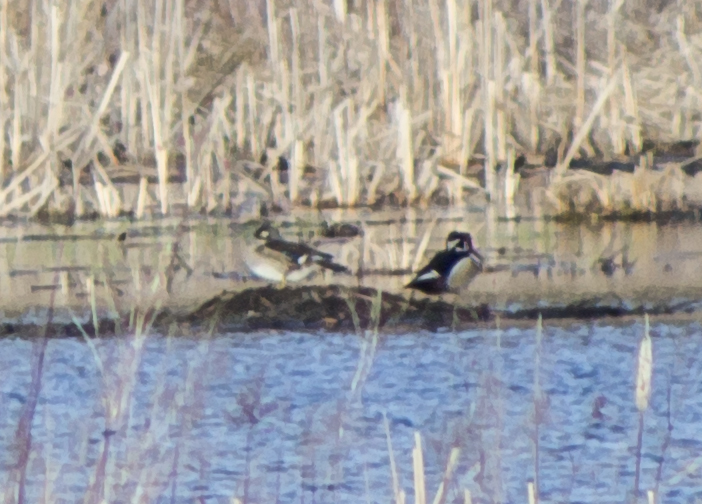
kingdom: Animalia
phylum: Chordata
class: Aves
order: Anseriformes
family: Anatidae
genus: Aix
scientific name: Aix sponsa
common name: Wood duck
